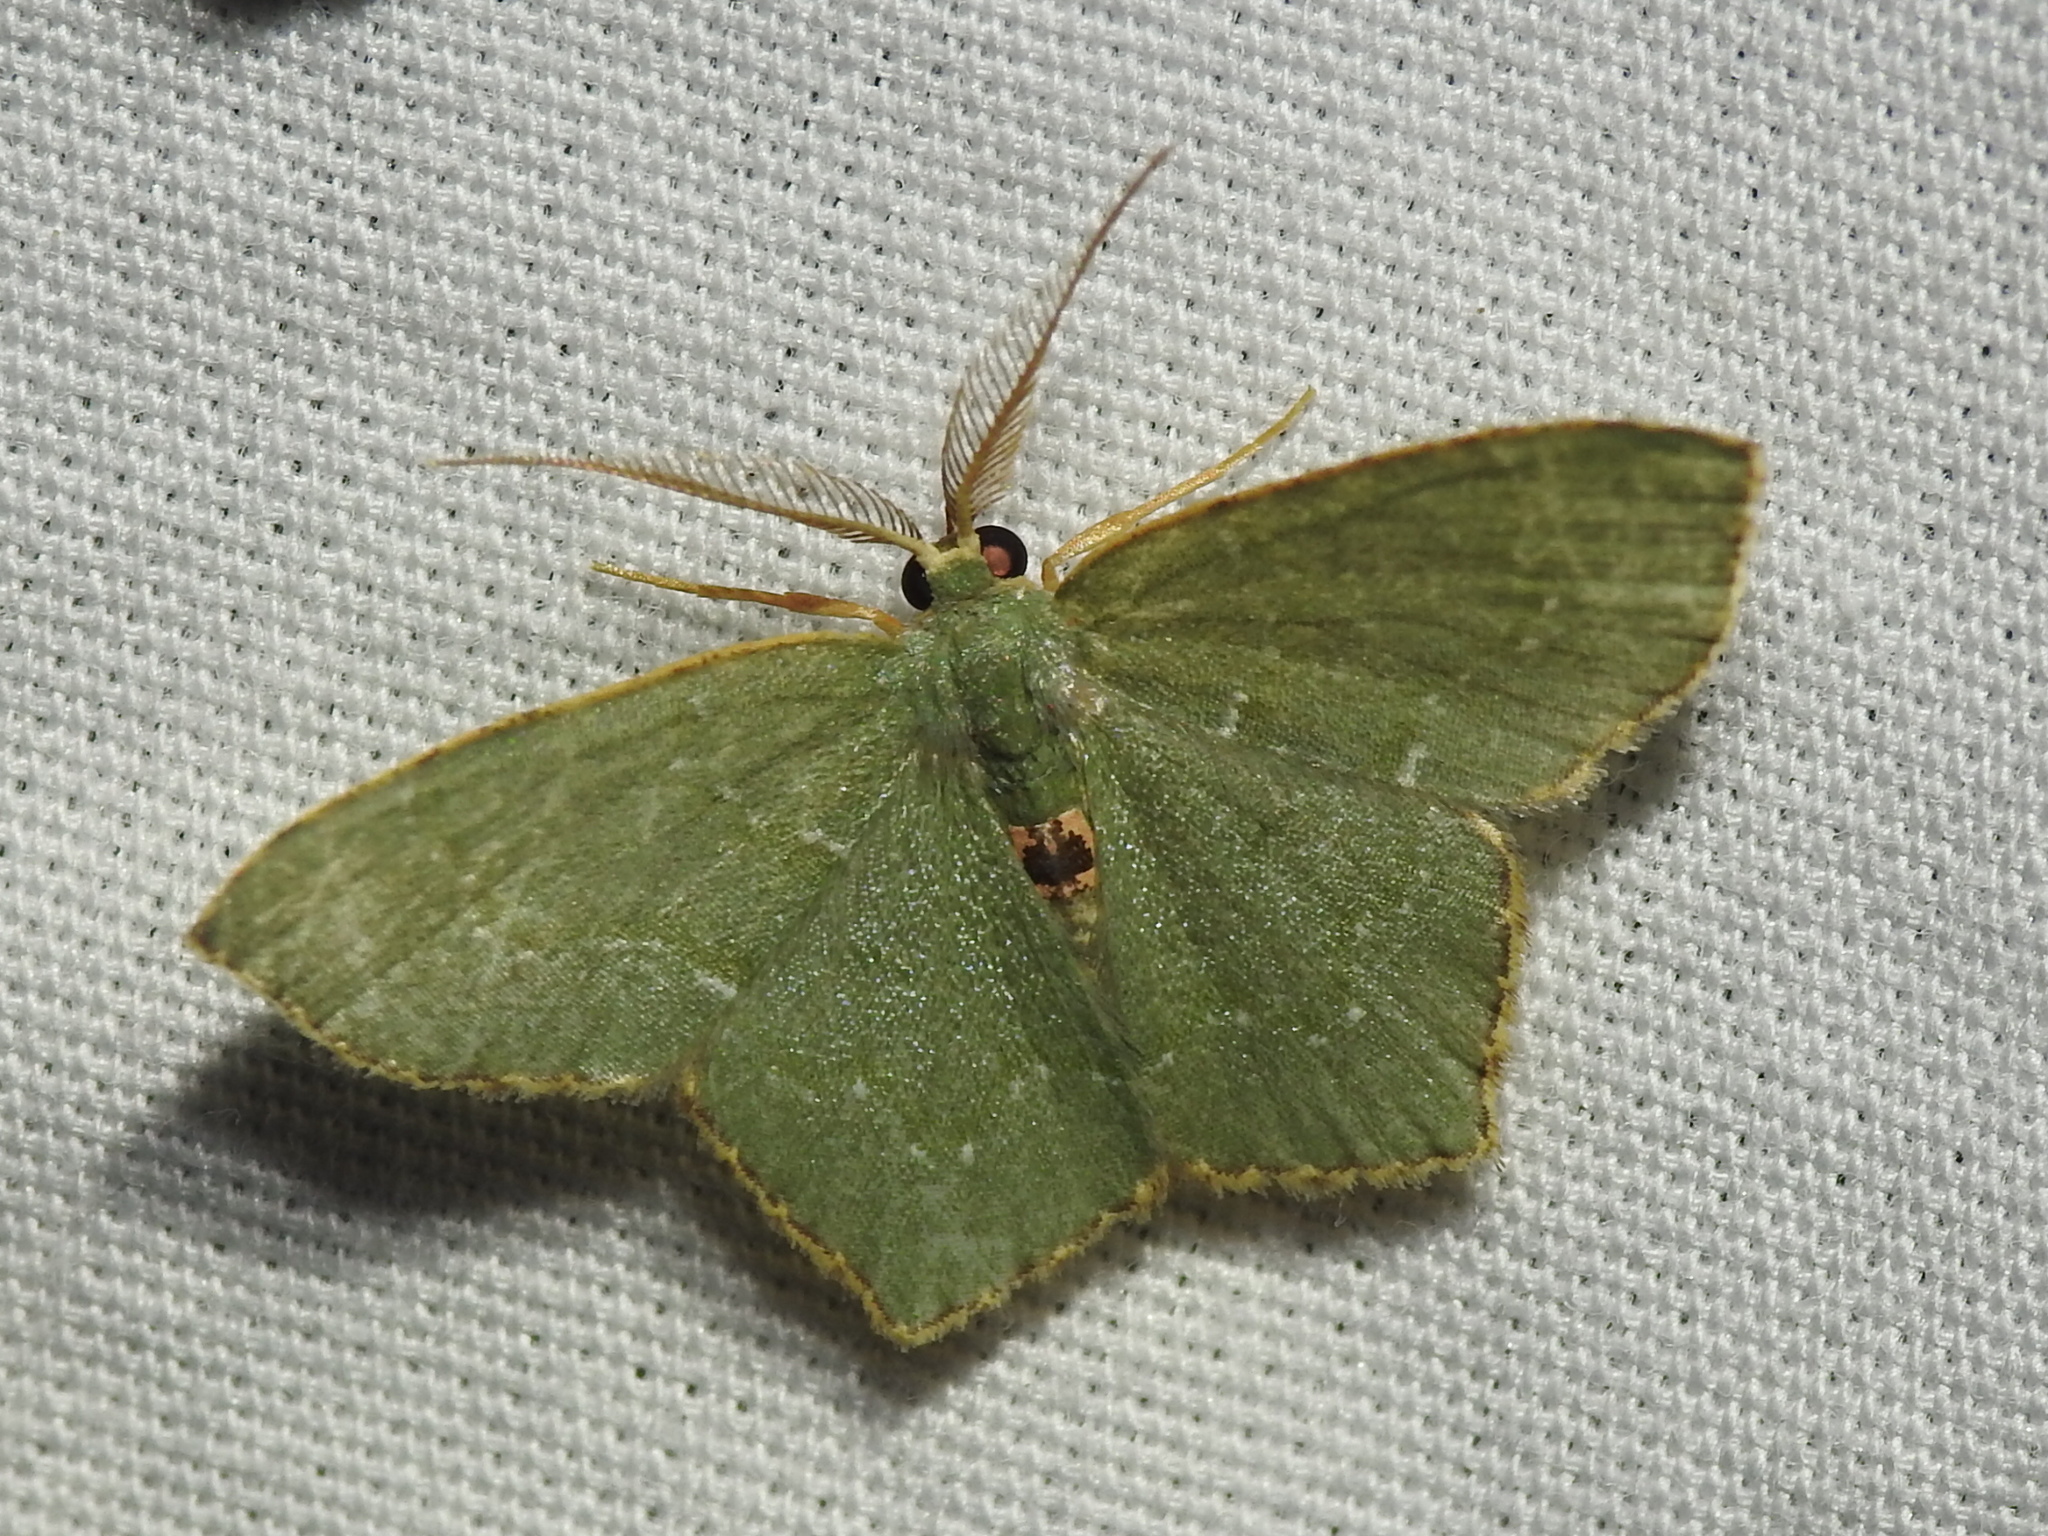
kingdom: Animalia
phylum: Arthropoda
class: Insecta
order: Lepidoptera
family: Geometridae
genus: Chloropteryx
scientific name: Chloropteryx tepperaria
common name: Angle winged emerald moth
